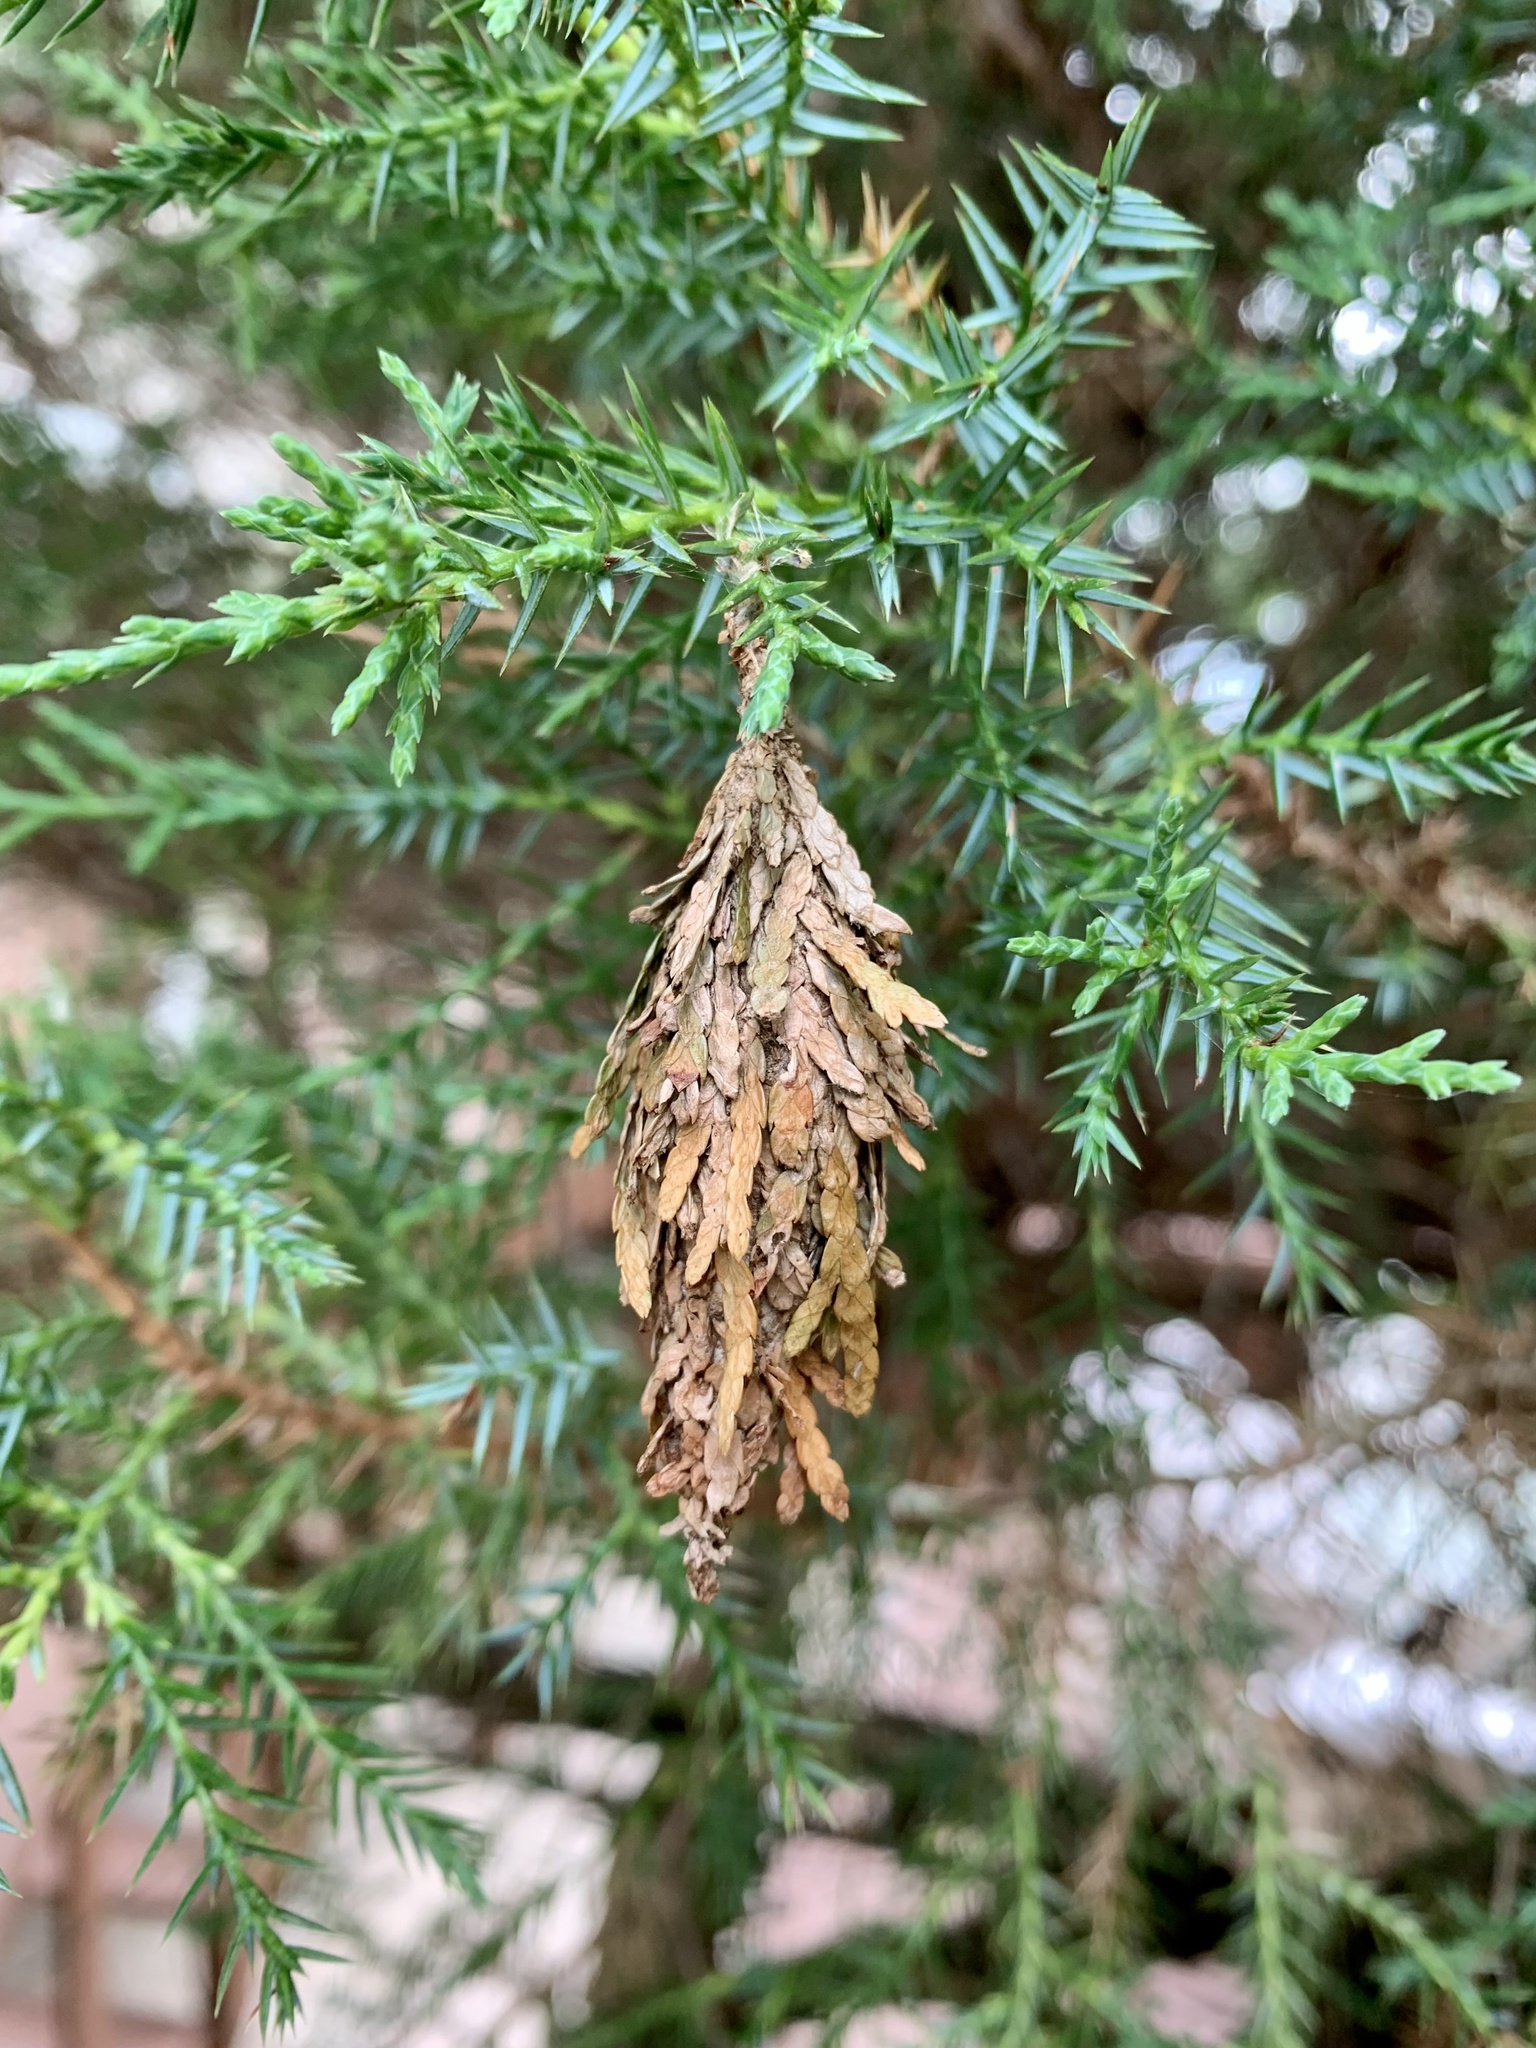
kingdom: Animalia
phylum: Arthropoda
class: Insecta
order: Lepidoptera
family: Psychidae
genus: Thyridopteryx
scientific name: Thyridopteryx ephemeraeformis
